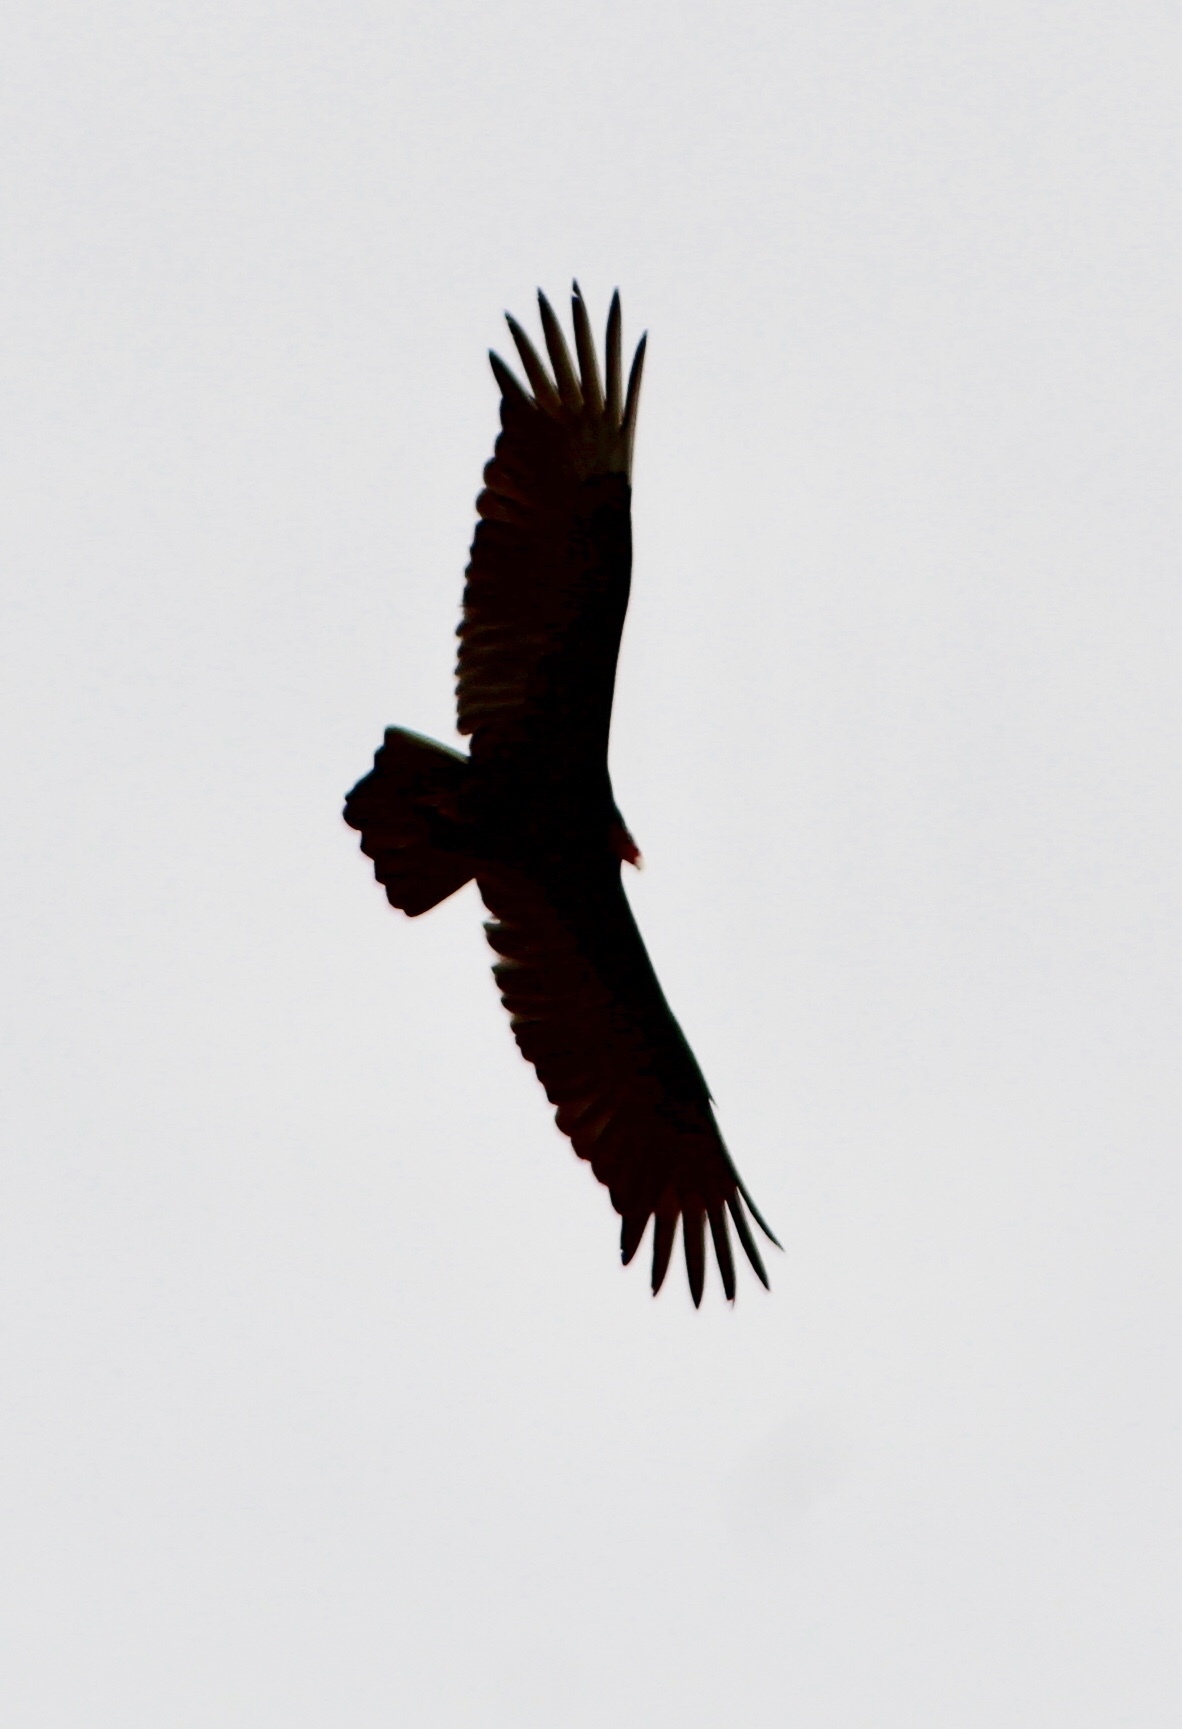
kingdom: Animalia
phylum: Chordata
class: Aves
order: Accipitriformes
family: Cathartidae
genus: Cathartes
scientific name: Cathartes aura
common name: Turkey vulture
